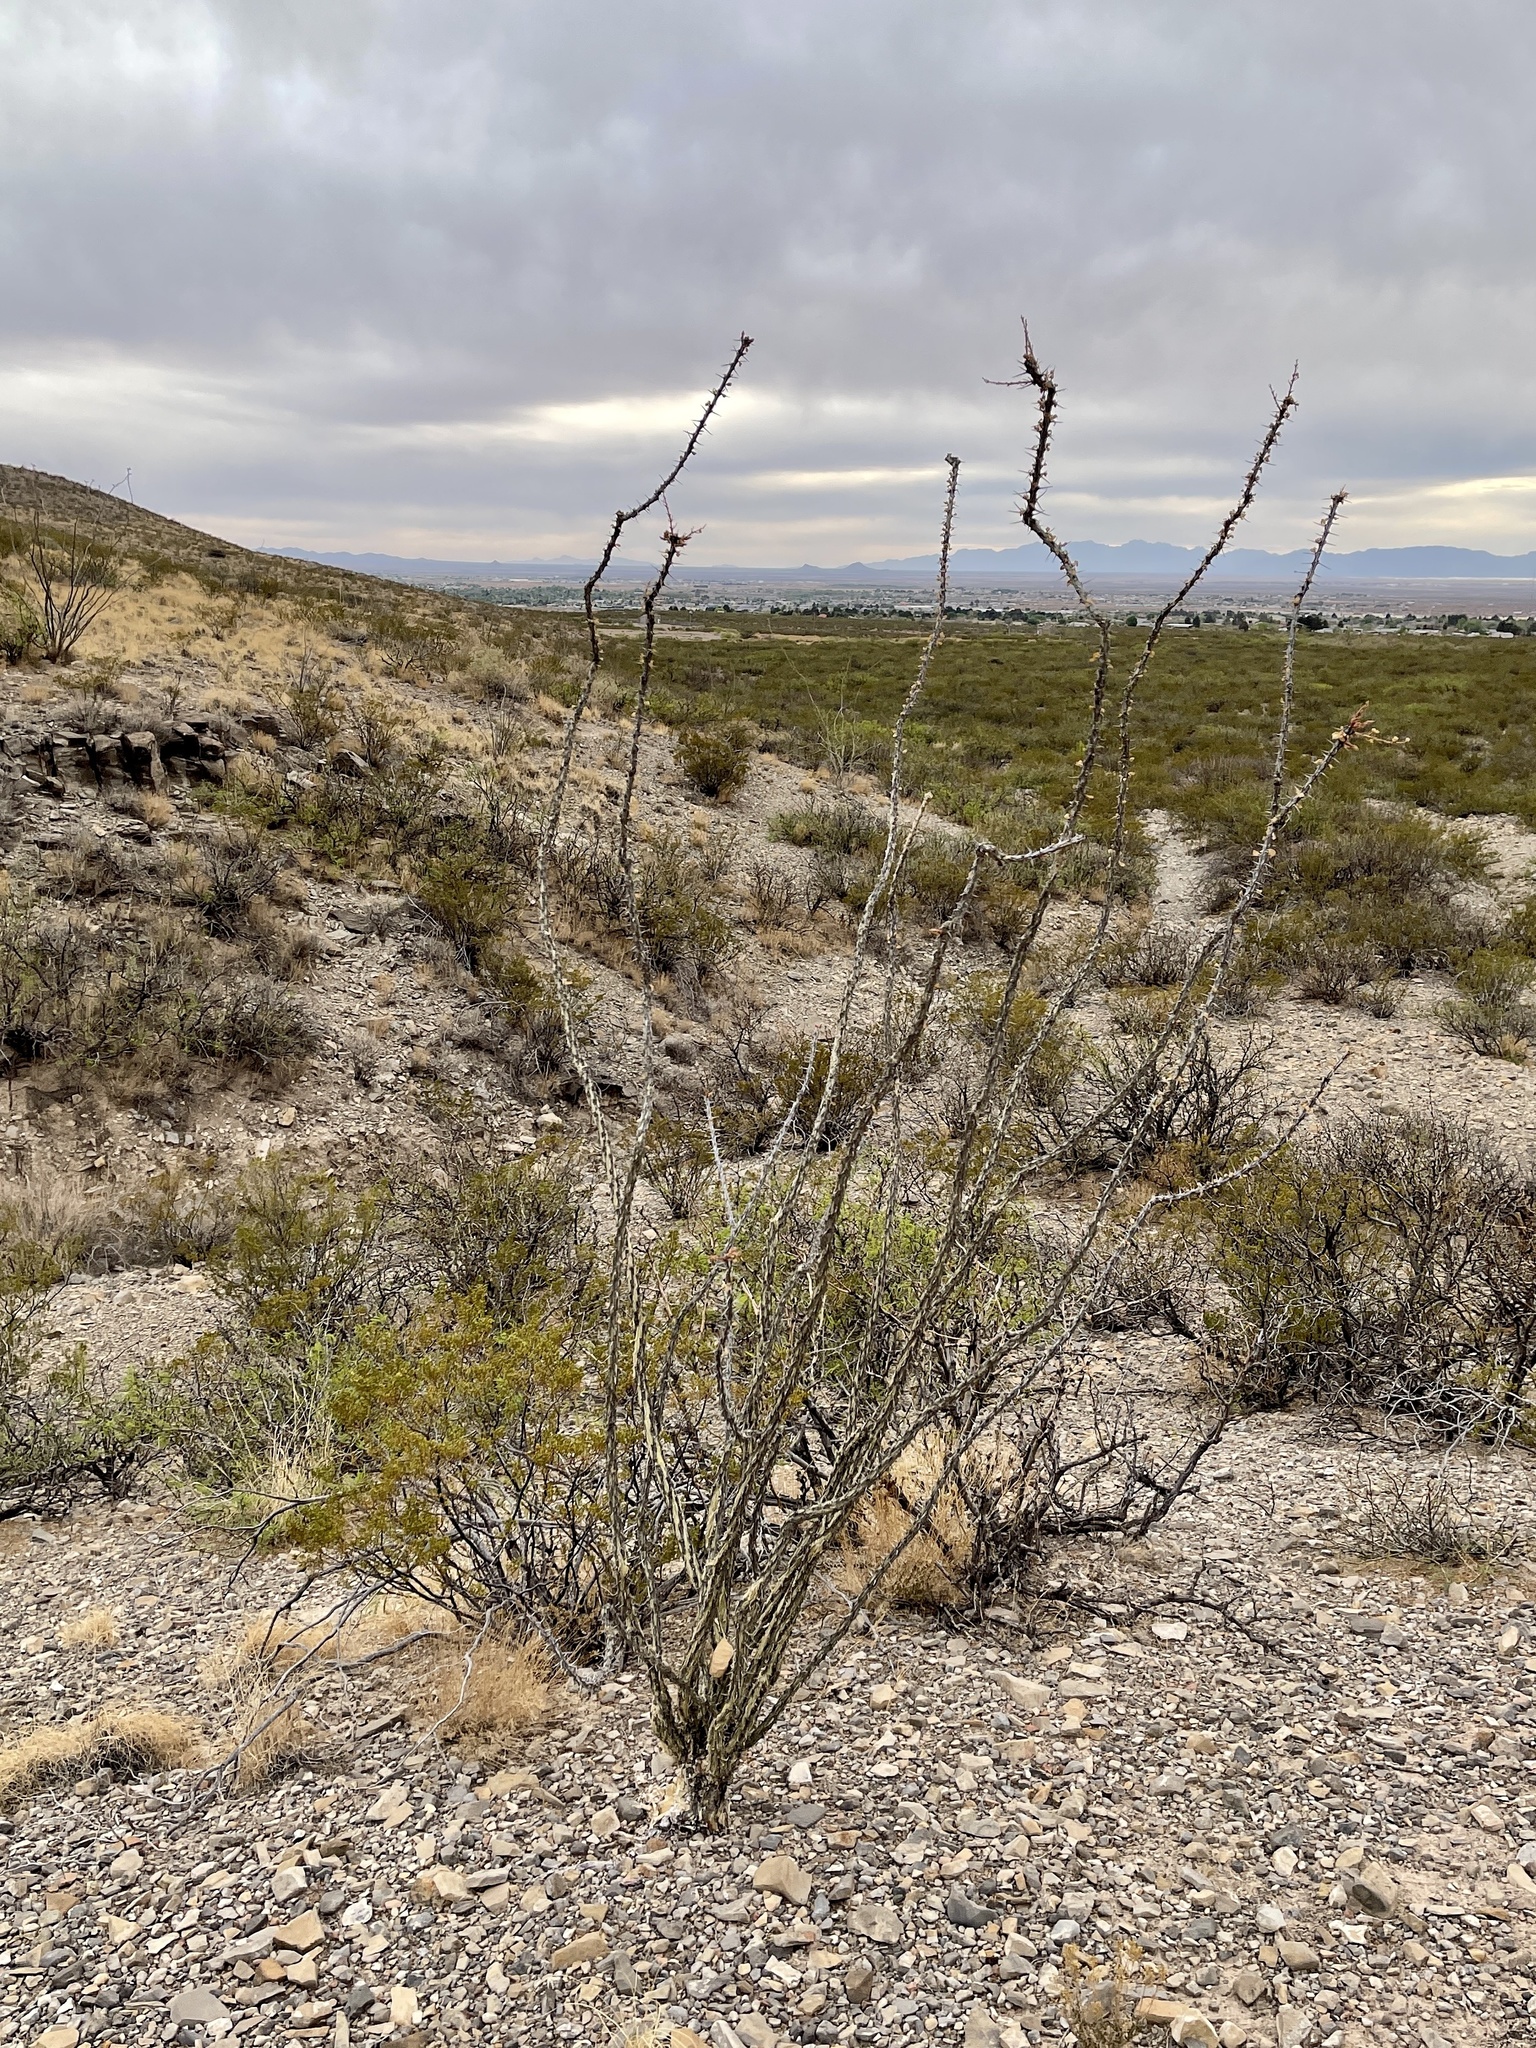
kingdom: Plantae
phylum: Tracheophyta
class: Magnoliopsida
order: Ericales
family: Fouquieriaceae
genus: Fouquieria
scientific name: Fouquieria splendens
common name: Vine-cactus
